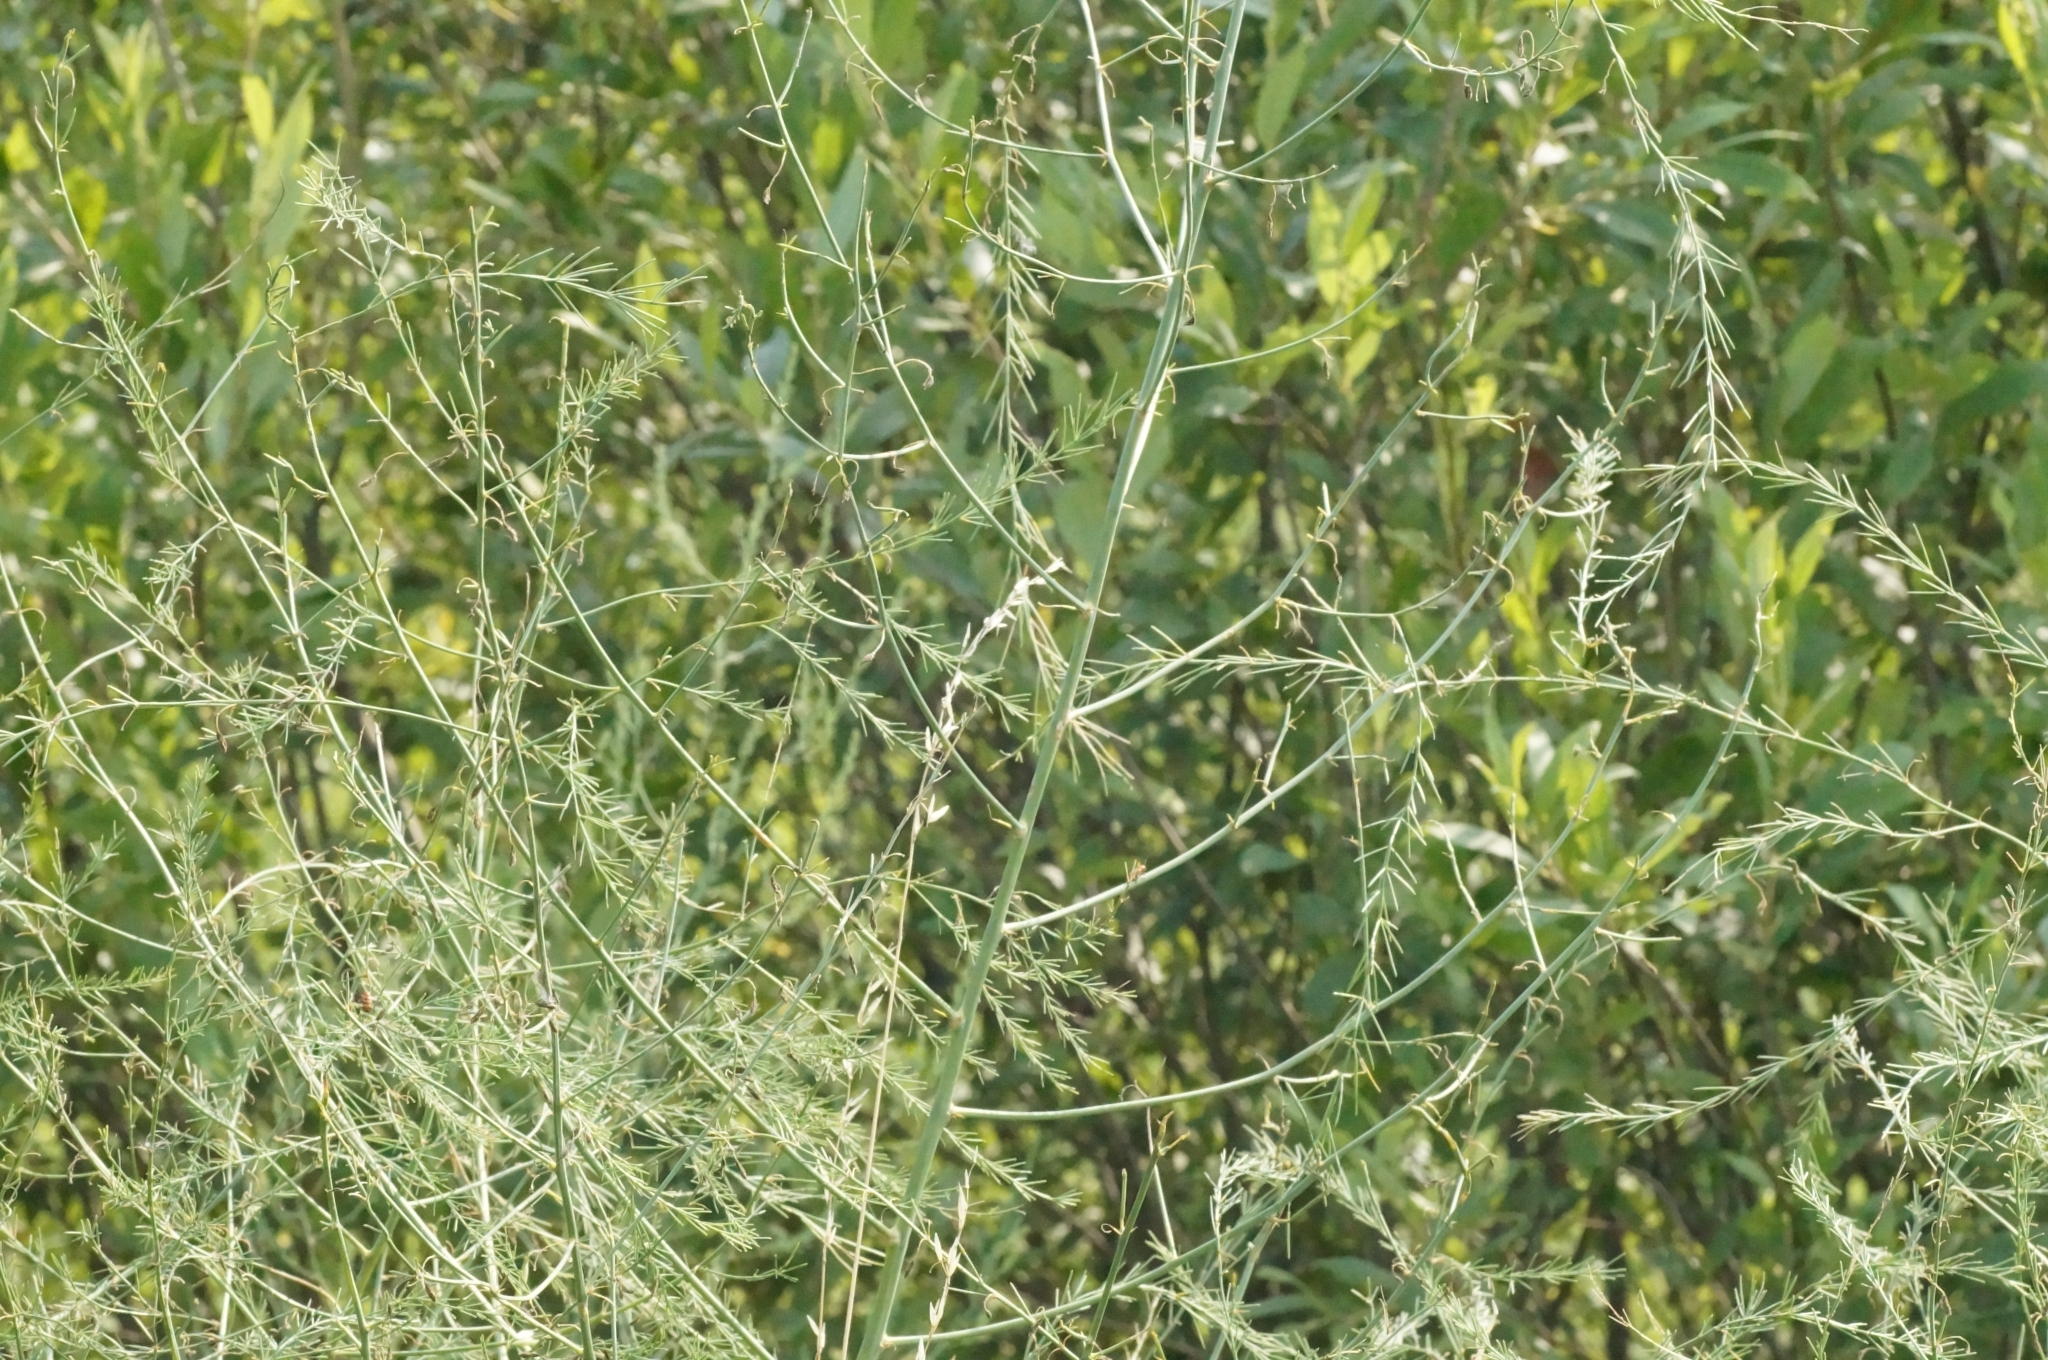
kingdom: Plantae
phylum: Tracheophyta
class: Liliopsida
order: Asparagales
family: Asparagaceae
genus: Asparagus
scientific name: Asparagus officinalis
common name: Garden asparagus
